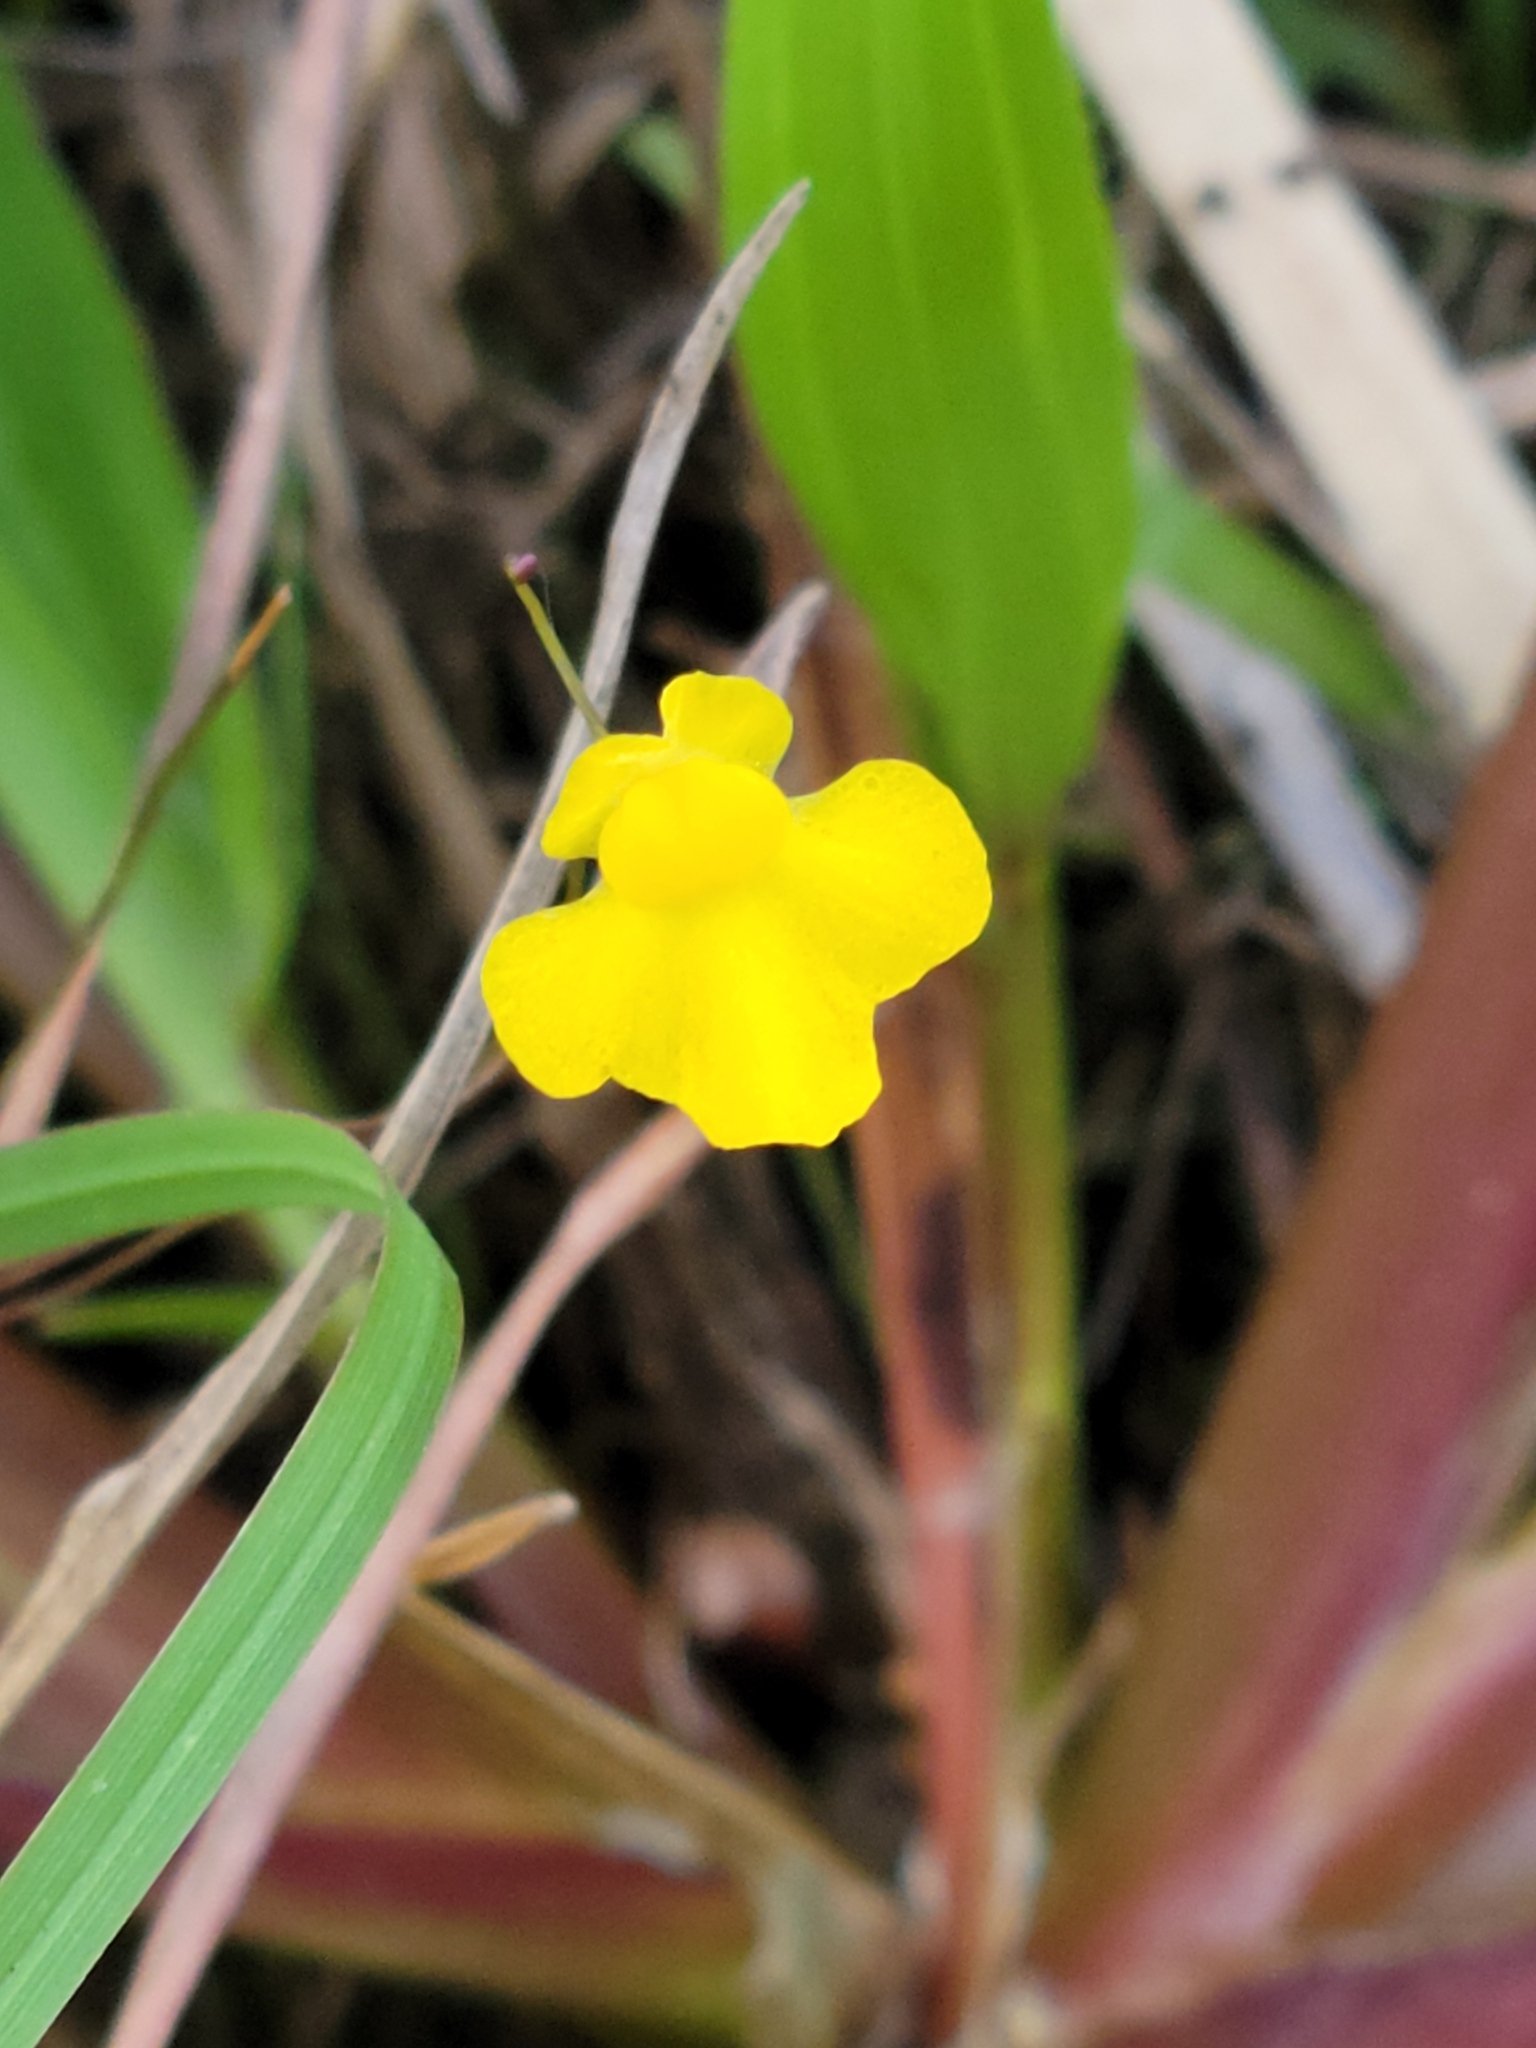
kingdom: Plantae
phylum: Tracheophyta
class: Magnoliopsida
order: Lamiales
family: Lentibulariaceae
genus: Utricularia
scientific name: Utricularia subulata
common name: Tiny bladderwort
